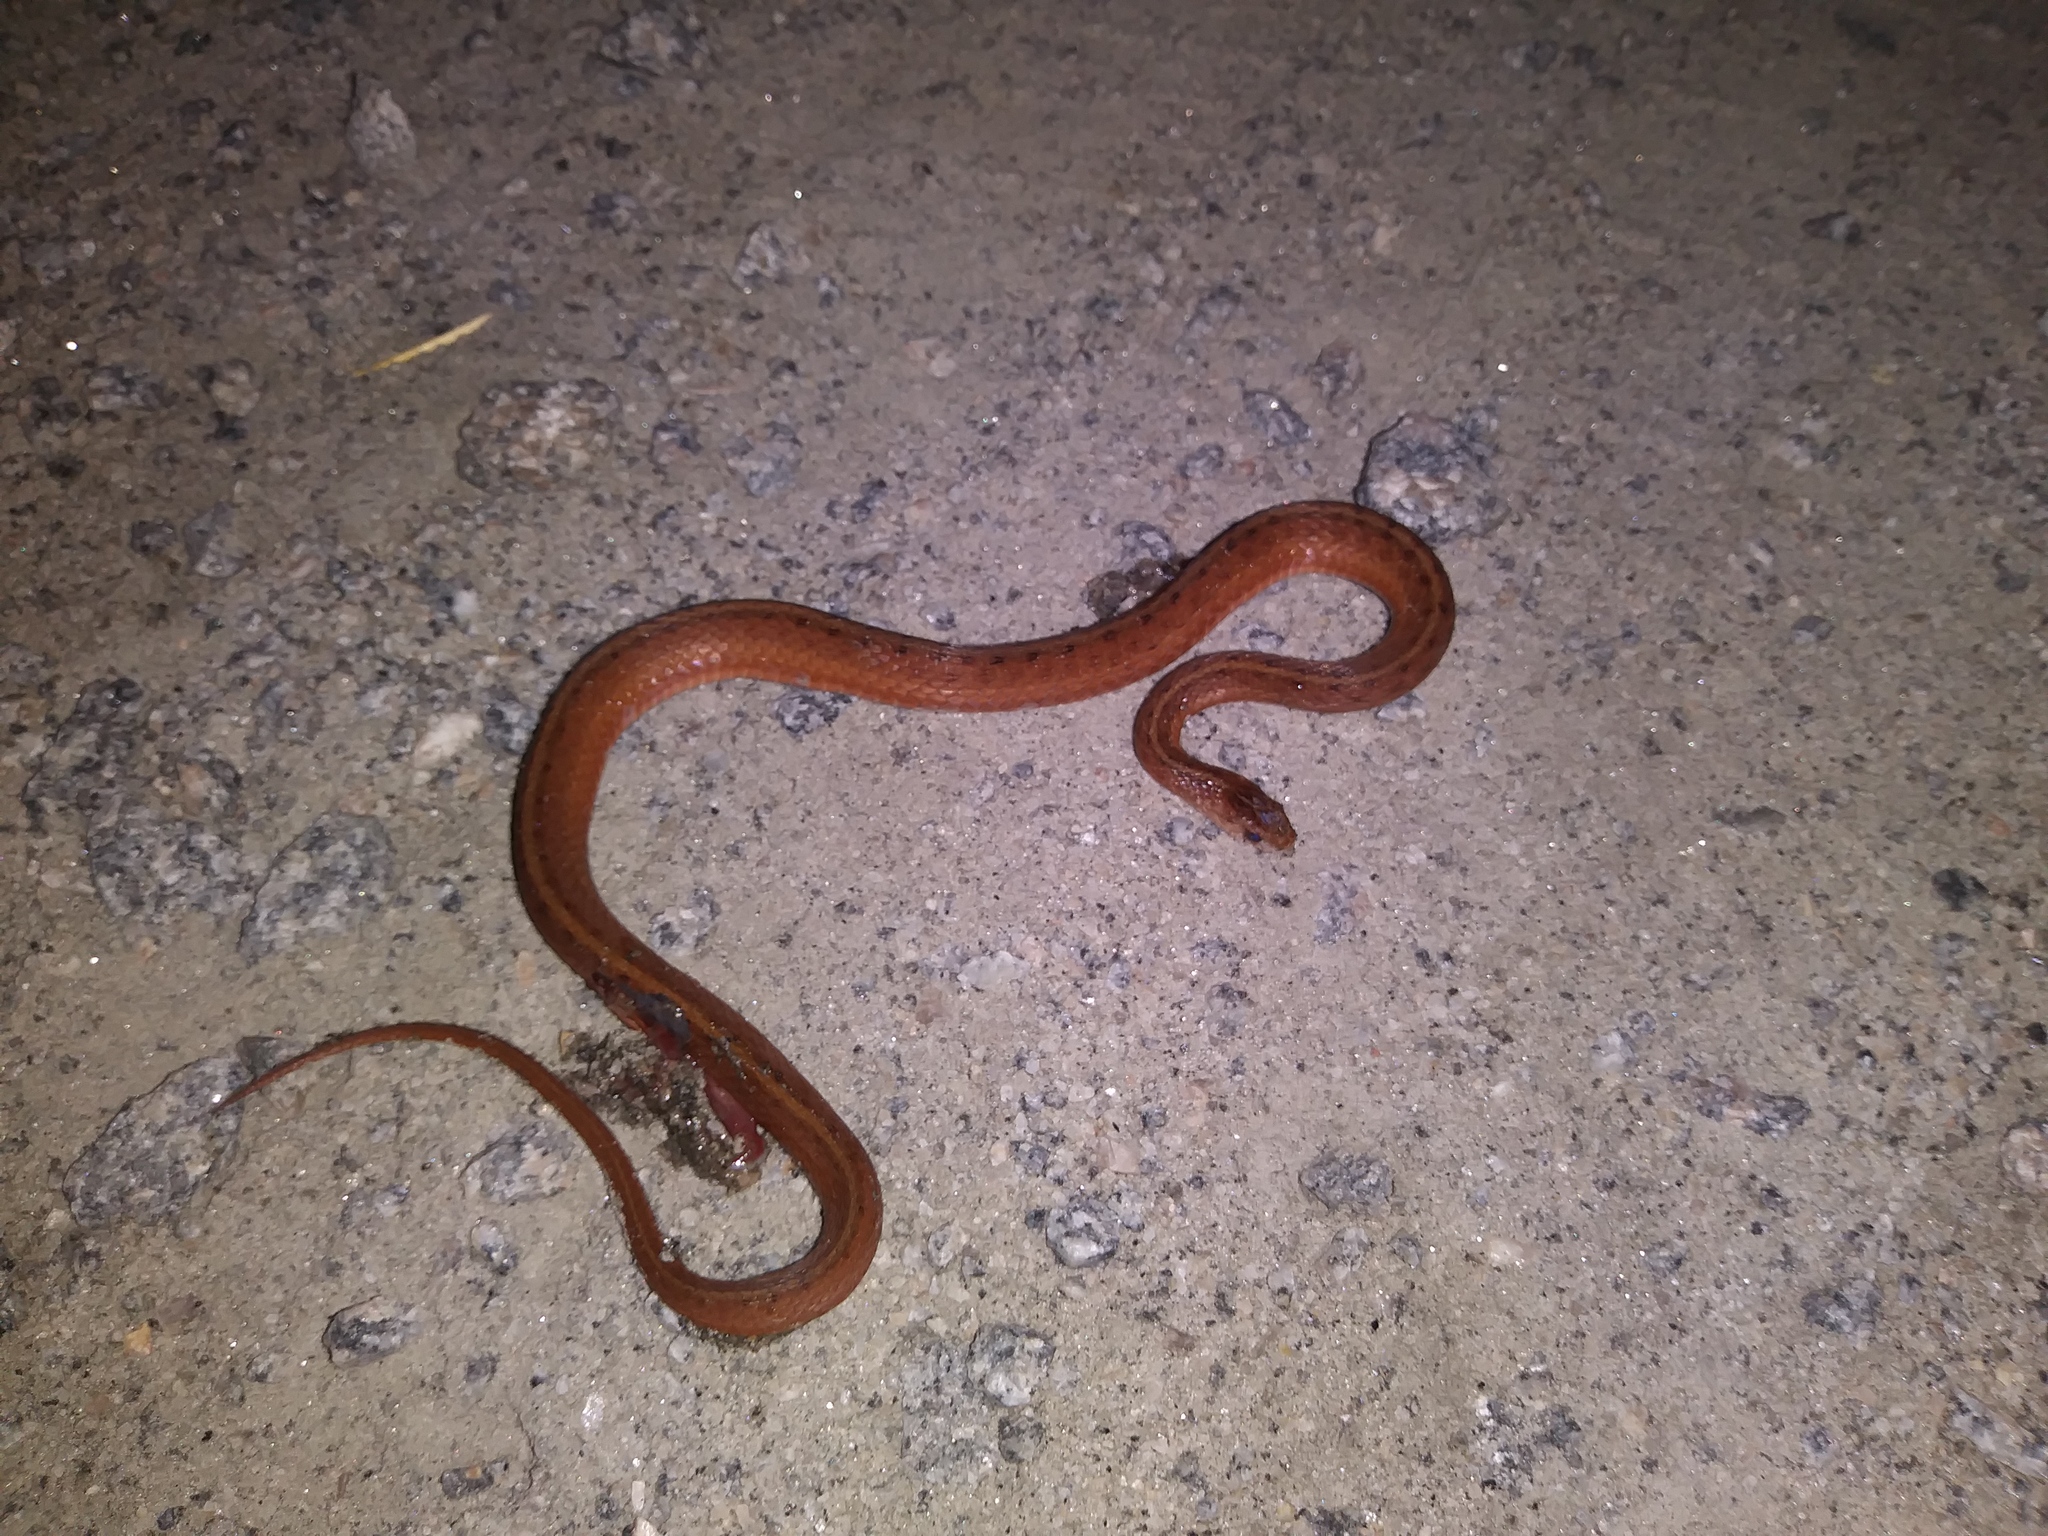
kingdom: Animalia
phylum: Chordata
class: Squamata
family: Colubridae
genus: Storeria
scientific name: Storeria dekayi
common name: (dekay’s) brown snake
